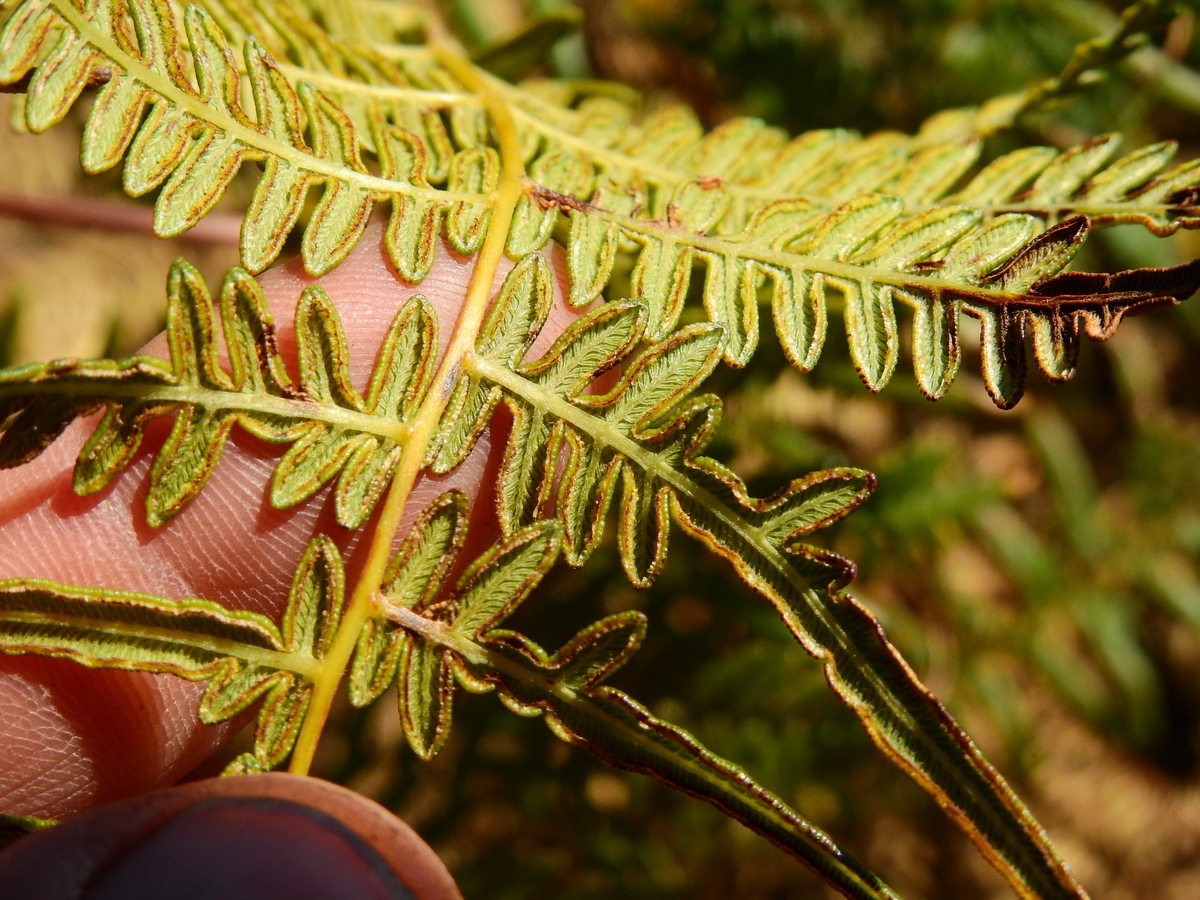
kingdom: Plantae
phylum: Tracheophyta
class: Polypodiopsida
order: Polypodiales
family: Dennstaedtiaceae
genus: Pteridium
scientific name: Pteridium esculentum
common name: Bracken fern
